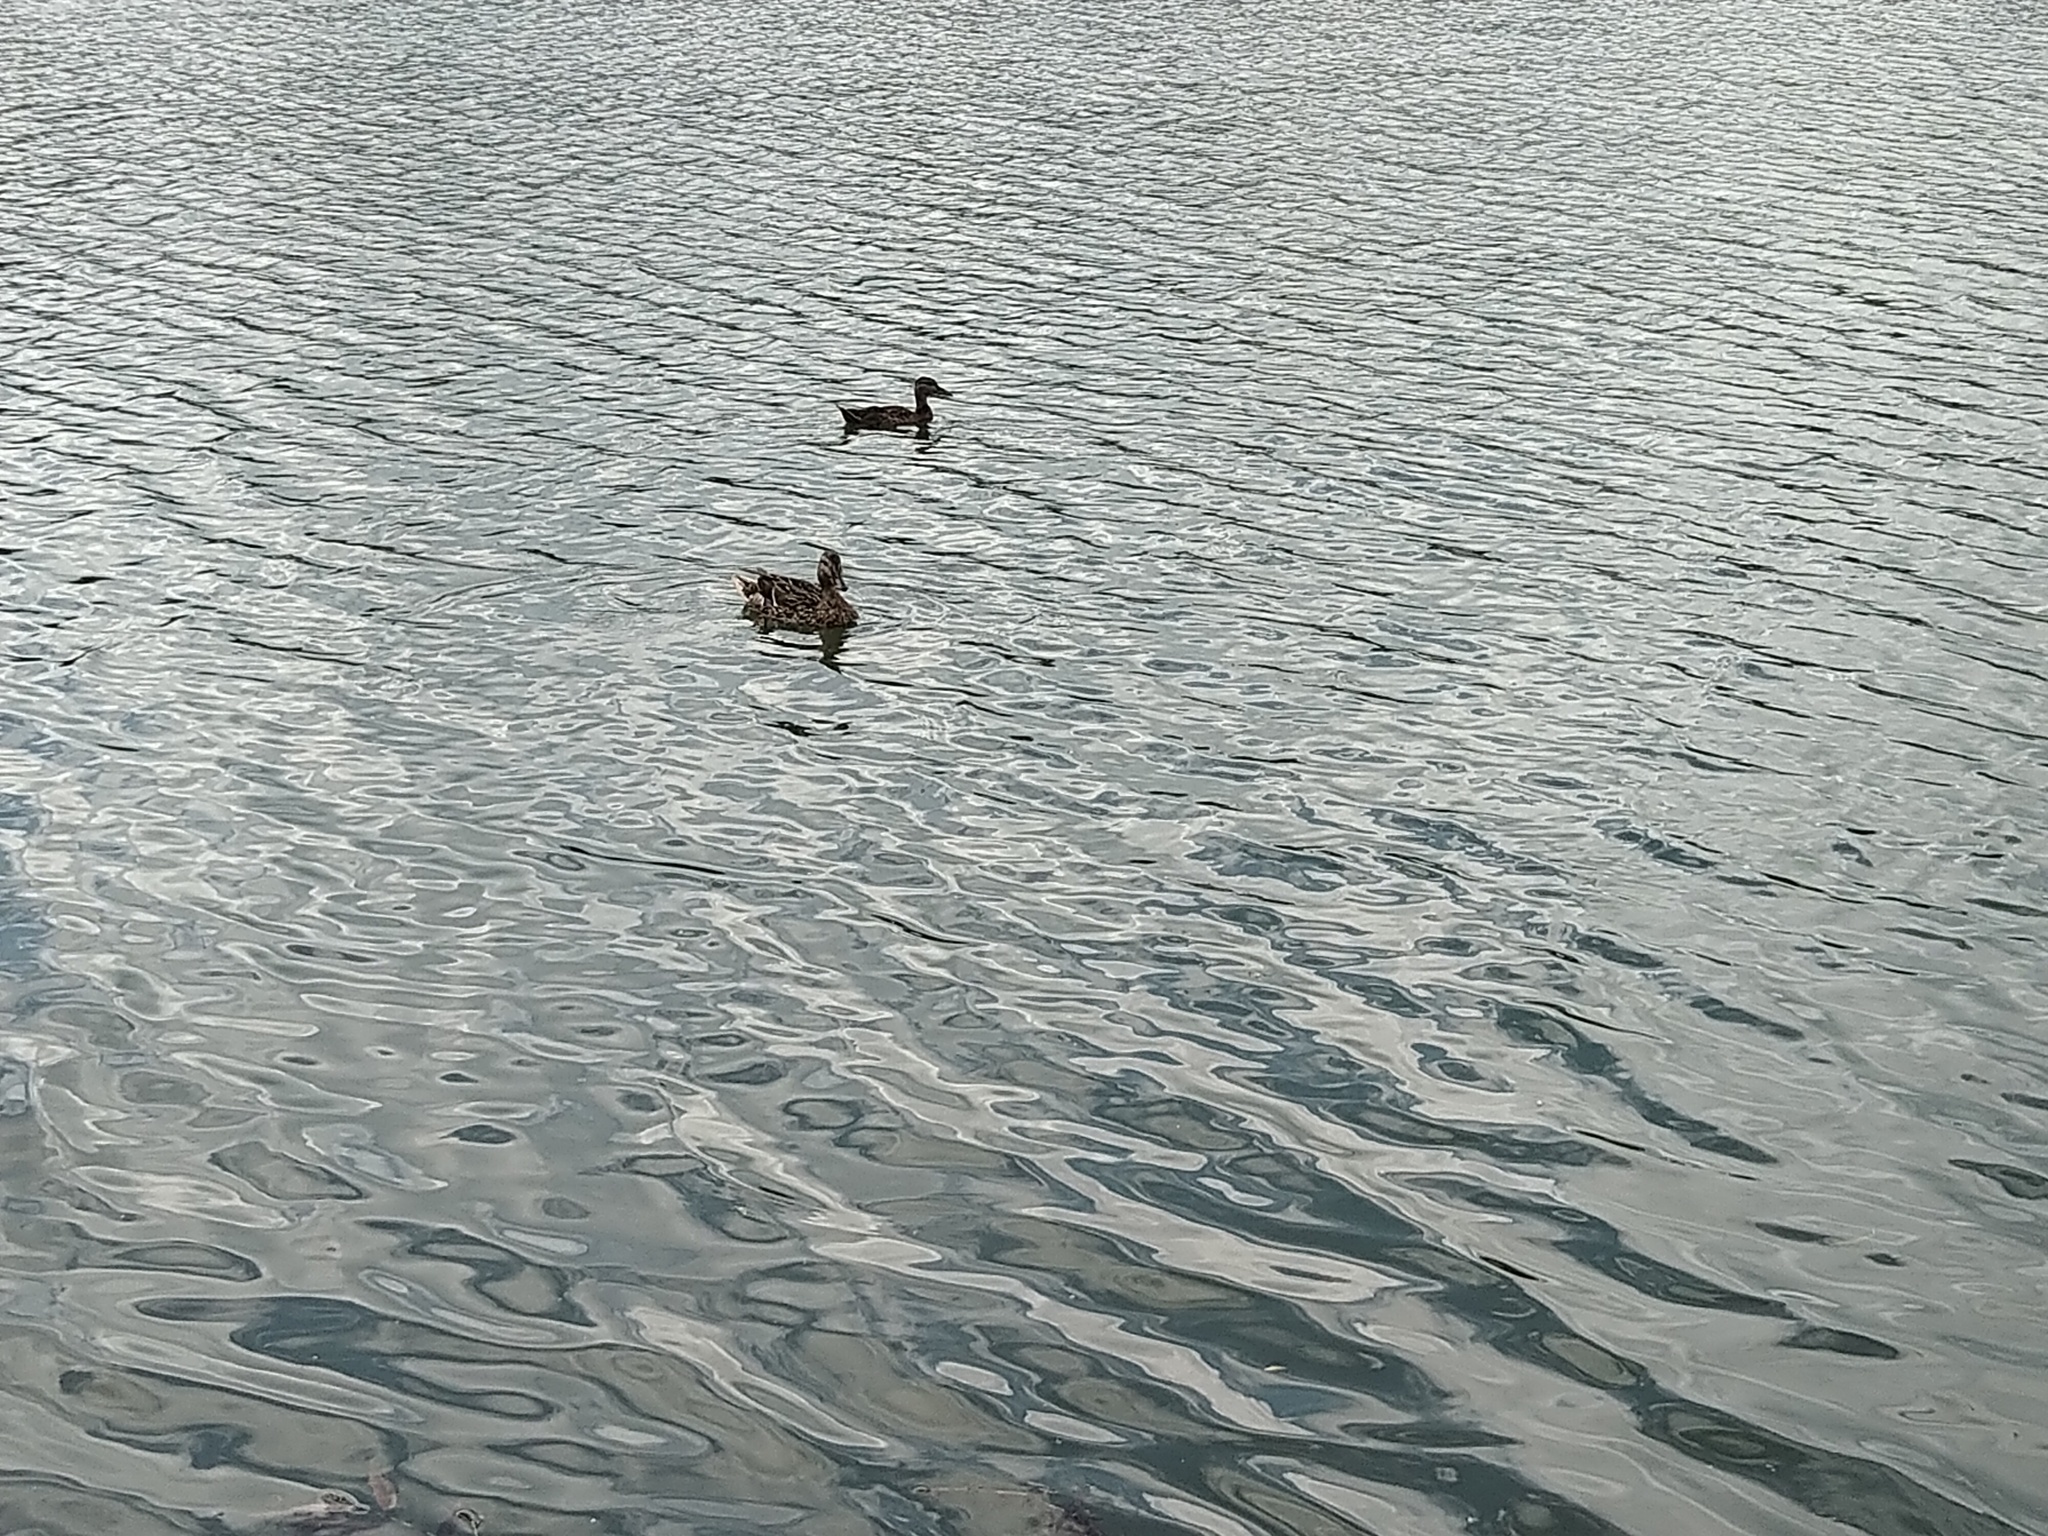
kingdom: Animalia
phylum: Chordata
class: Aves
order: Anseriformes
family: Anatidae
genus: Anas
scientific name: Anas platyrhynchos
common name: Mallard
